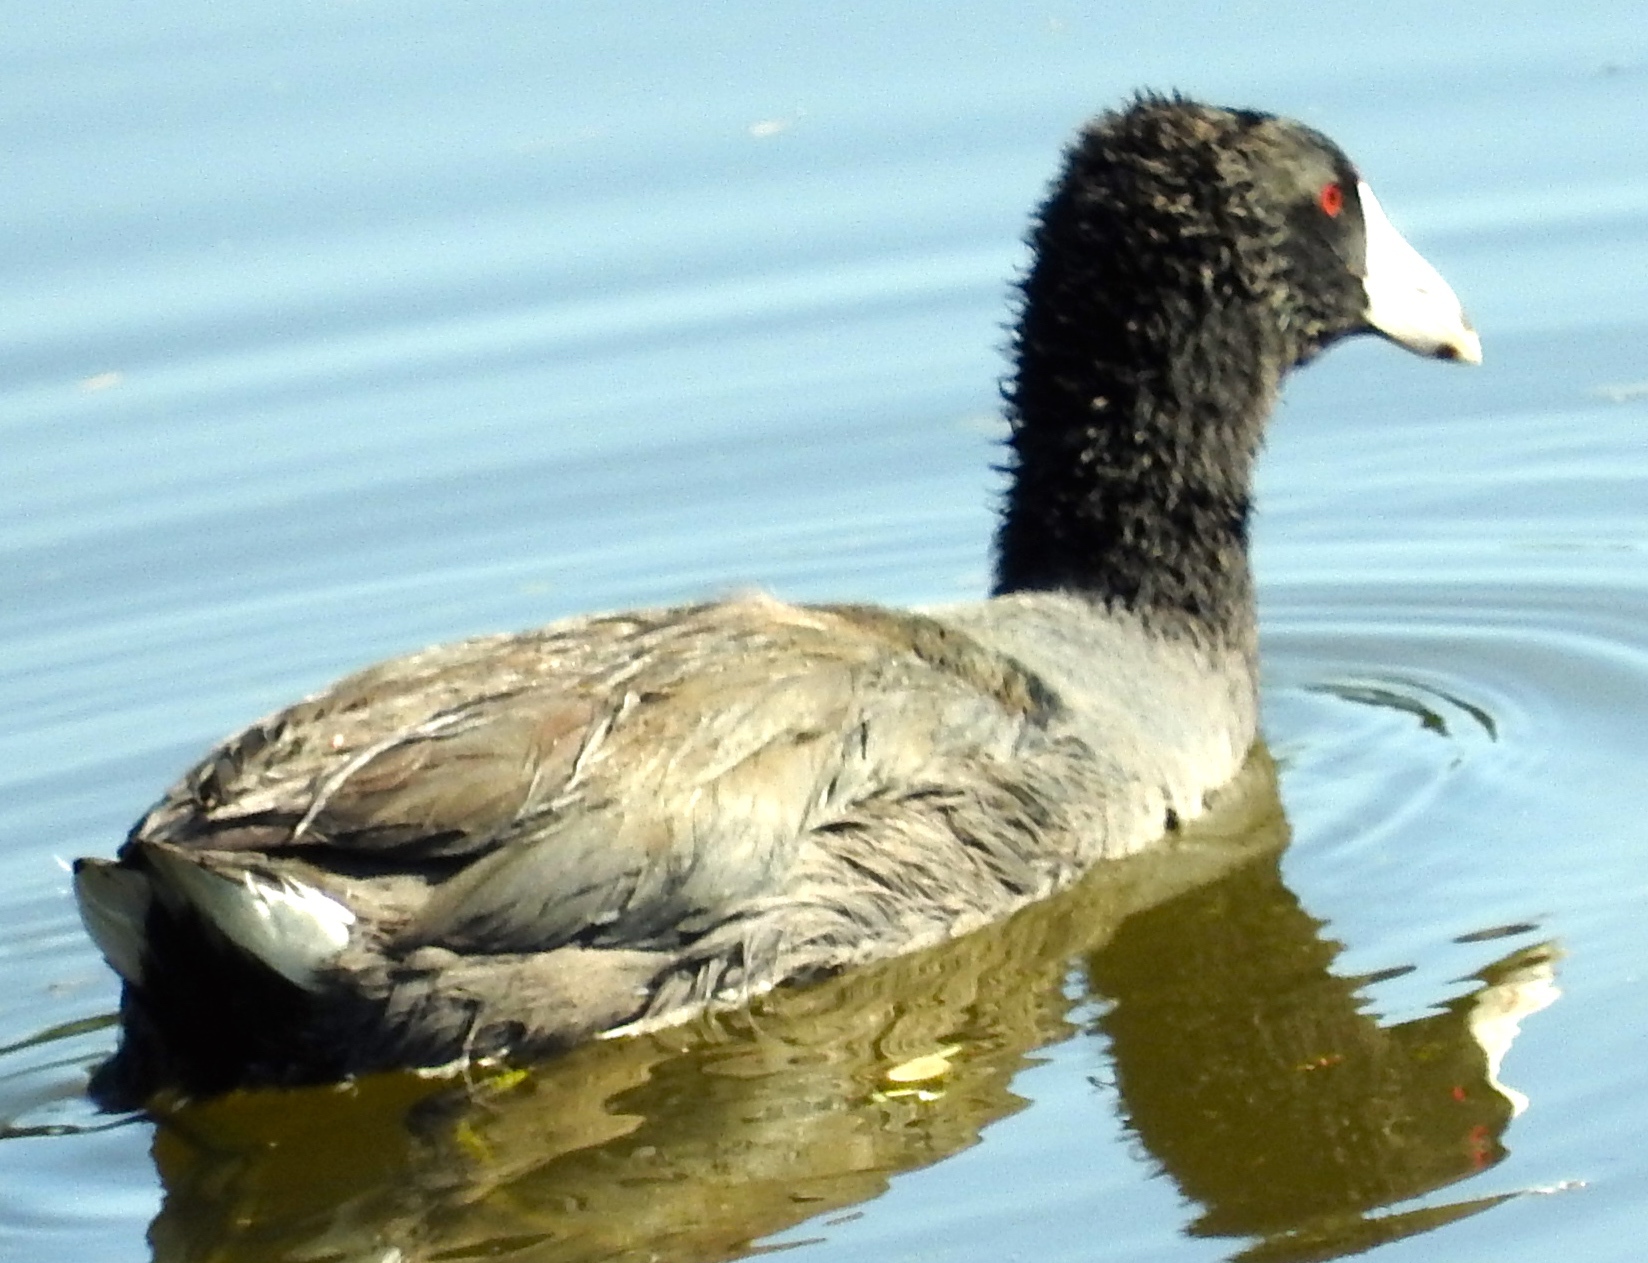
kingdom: Animalia
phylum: Chordata
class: Aves
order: Gruiformes
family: Rallidae
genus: Fulica
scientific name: Fulica americana
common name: American coot
